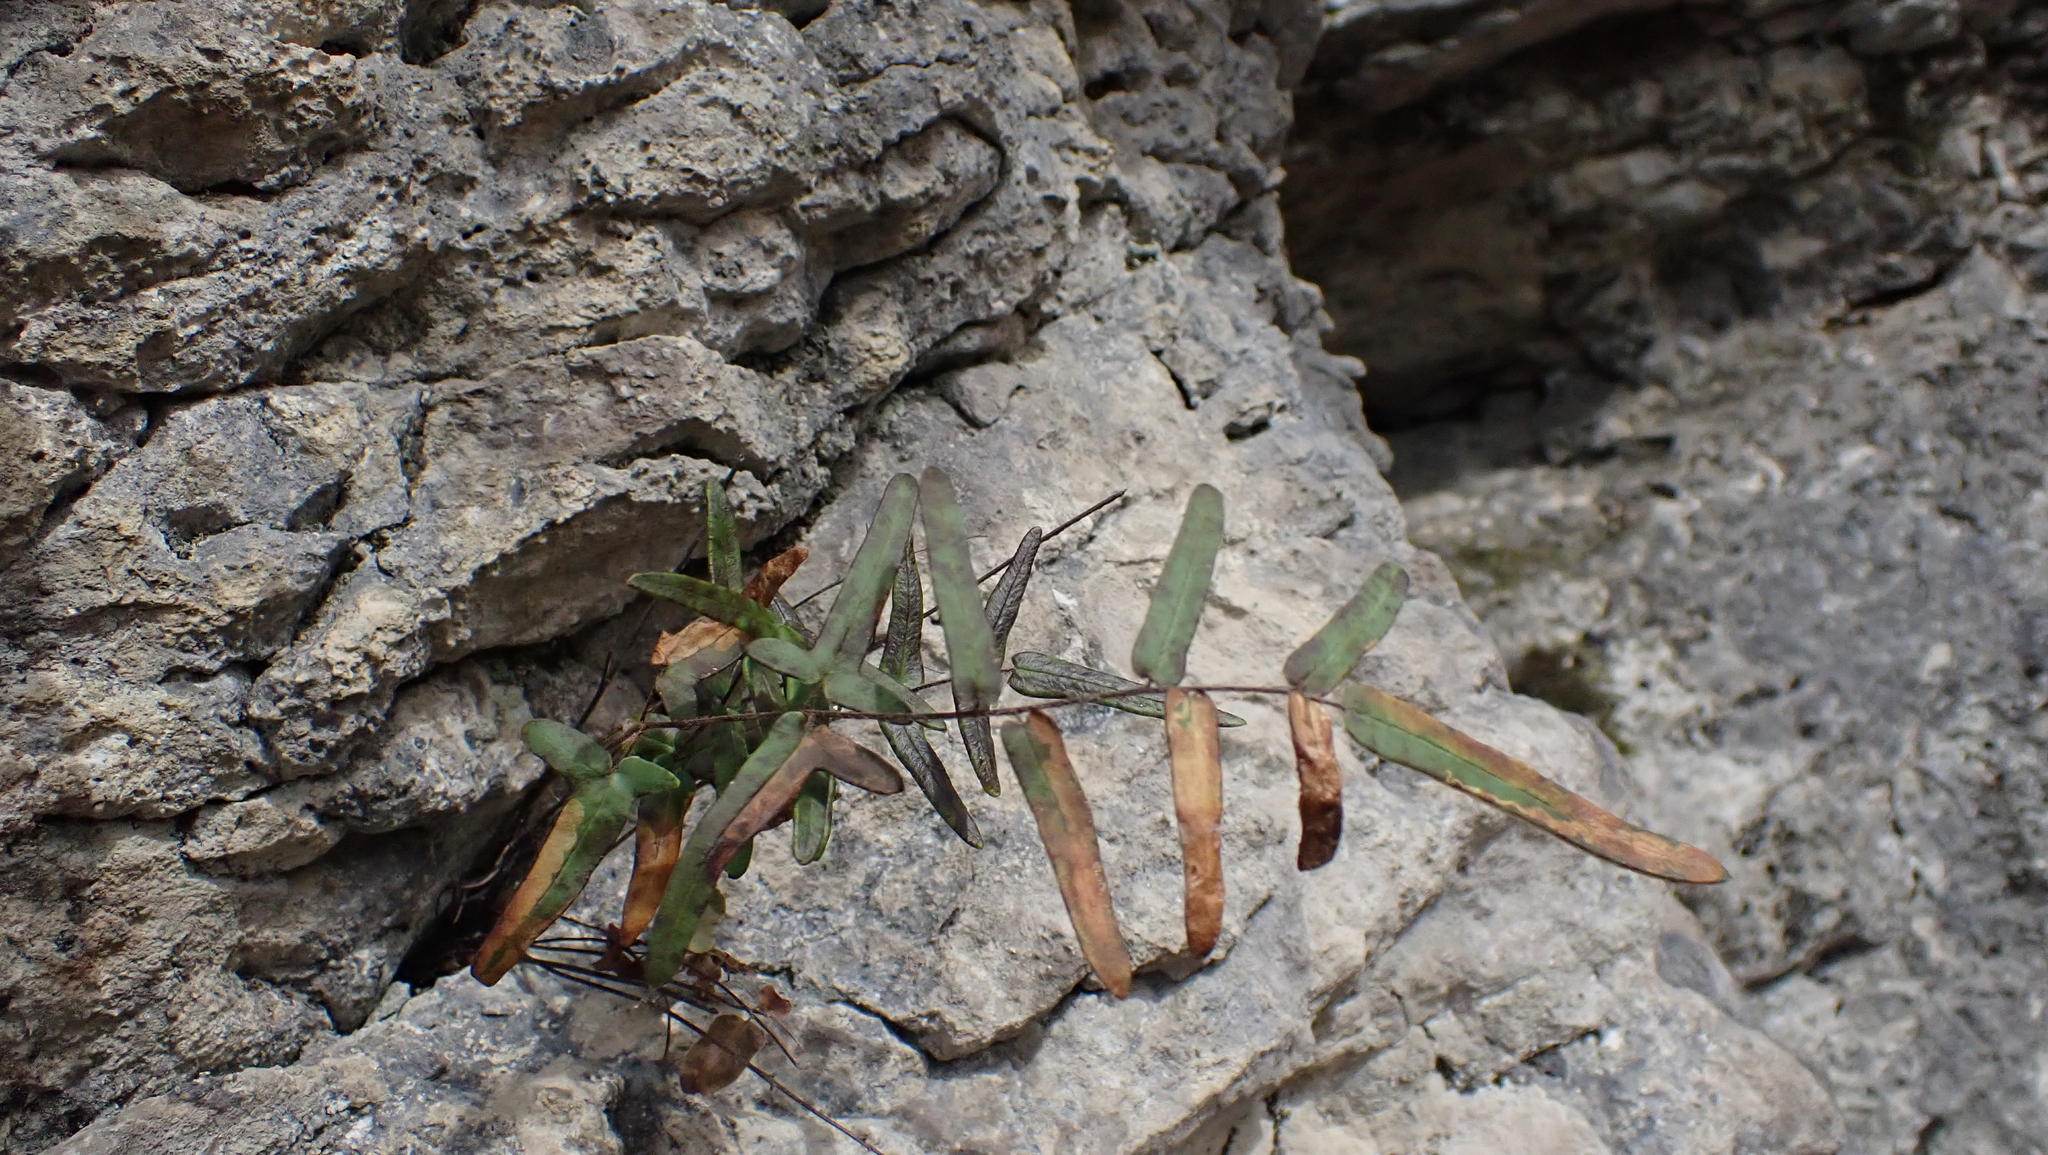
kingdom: Animalia
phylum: Arthropoda
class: Insecta
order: Diptera
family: Agromyzidae
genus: Phytoliriomyza
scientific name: Phytoliriomyza felti
